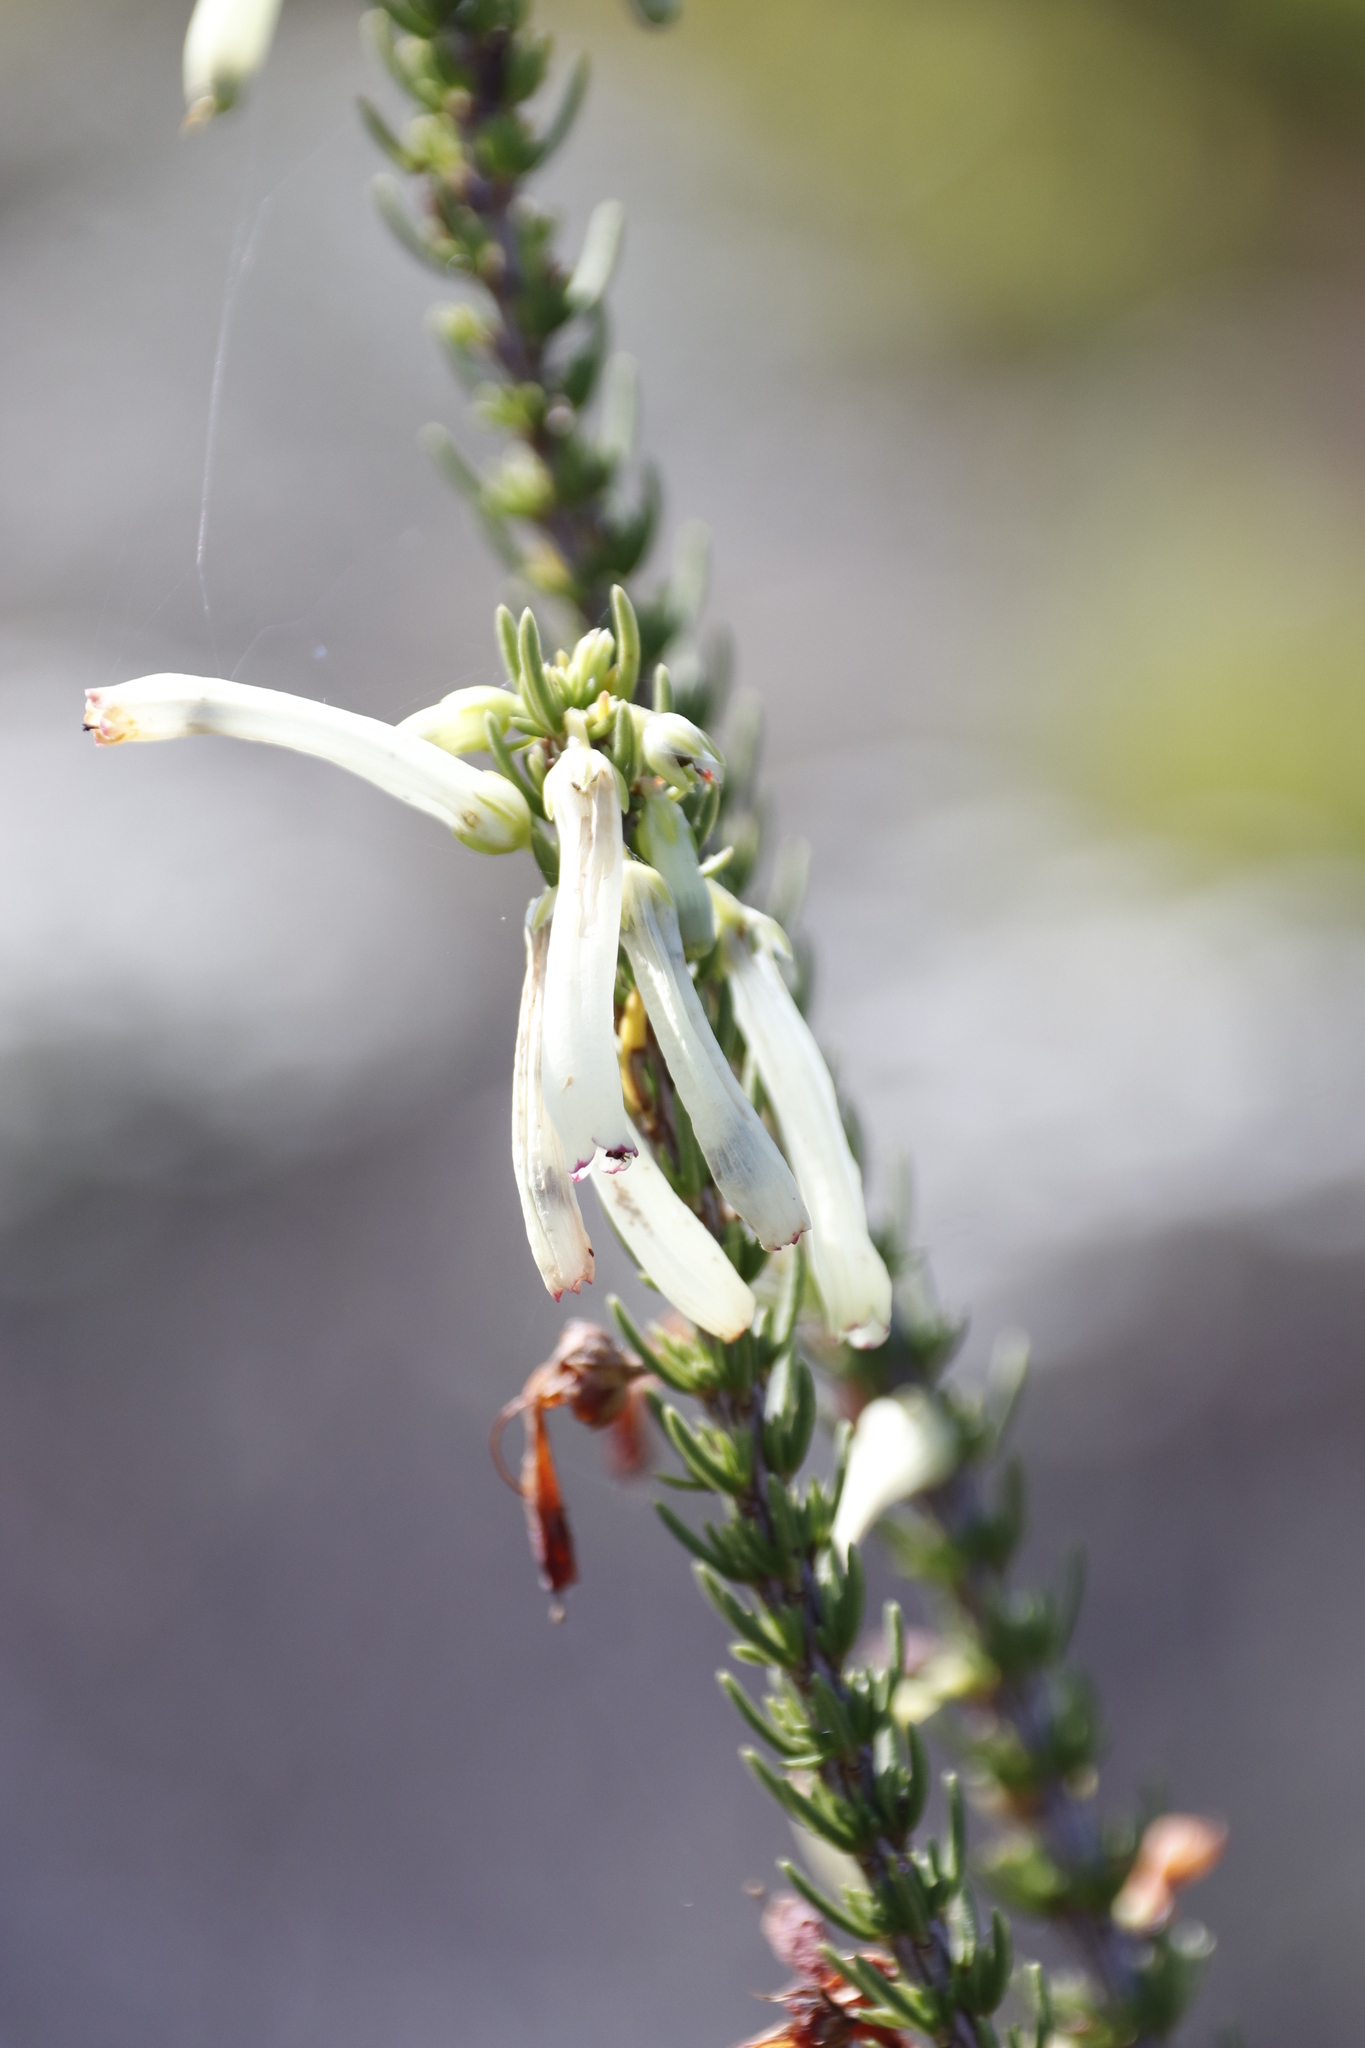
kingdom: Plantae
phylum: Tracheophyta
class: Magnoliopsida
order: Ericales
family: Ericaceae
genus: Erica
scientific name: Erica mammosa
